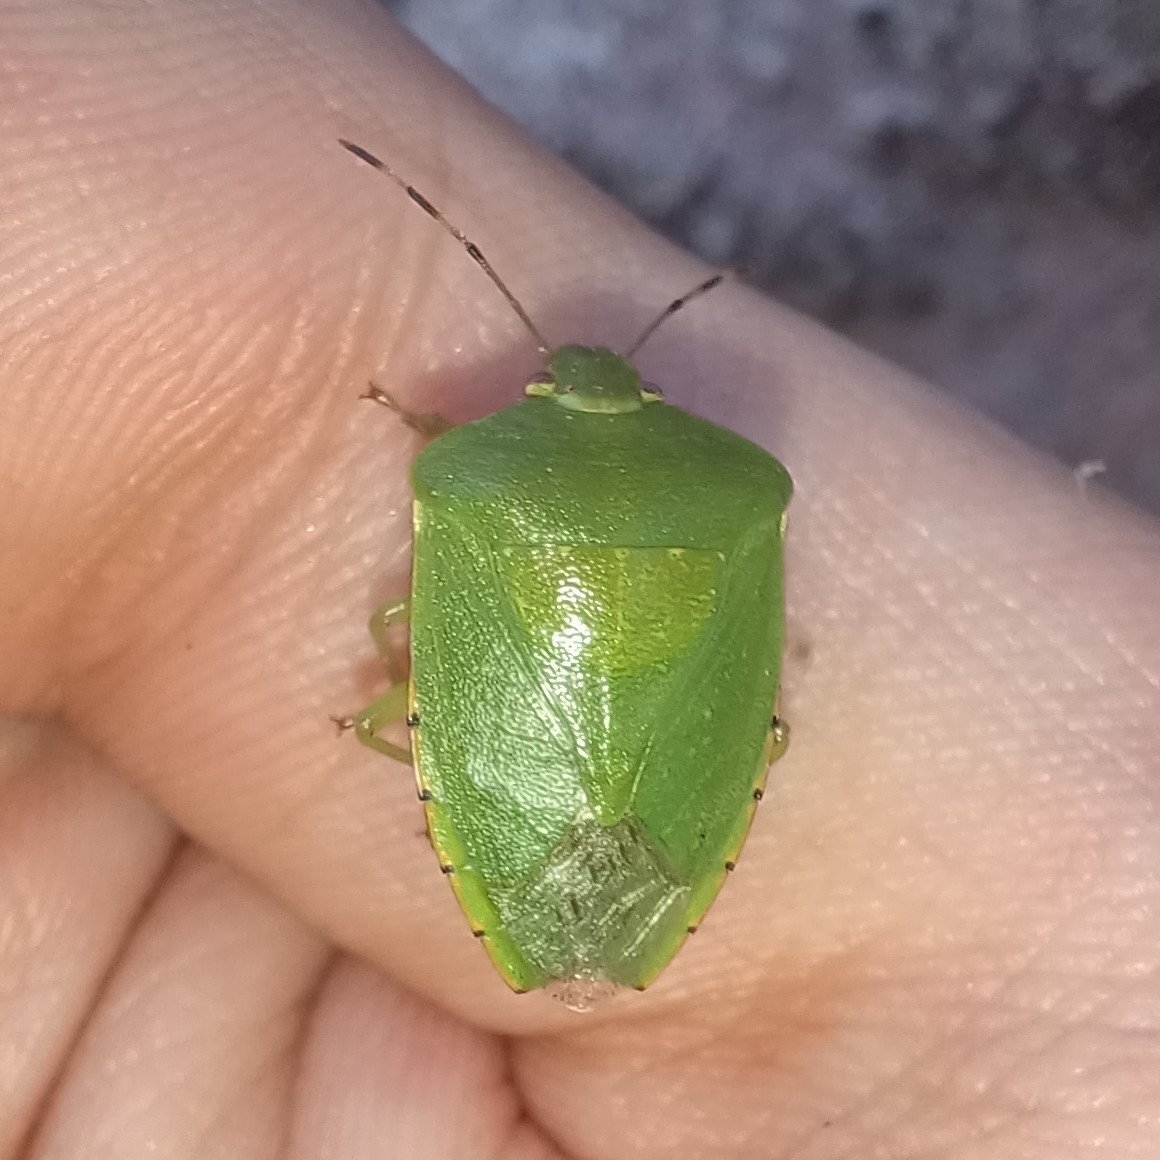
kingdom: Animalia
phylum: Arthropoda
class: Insecta
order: Hemiptera
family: Pentatomidae
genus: Chinavia
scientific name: Chinavia hilaris
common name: Green stink bug
